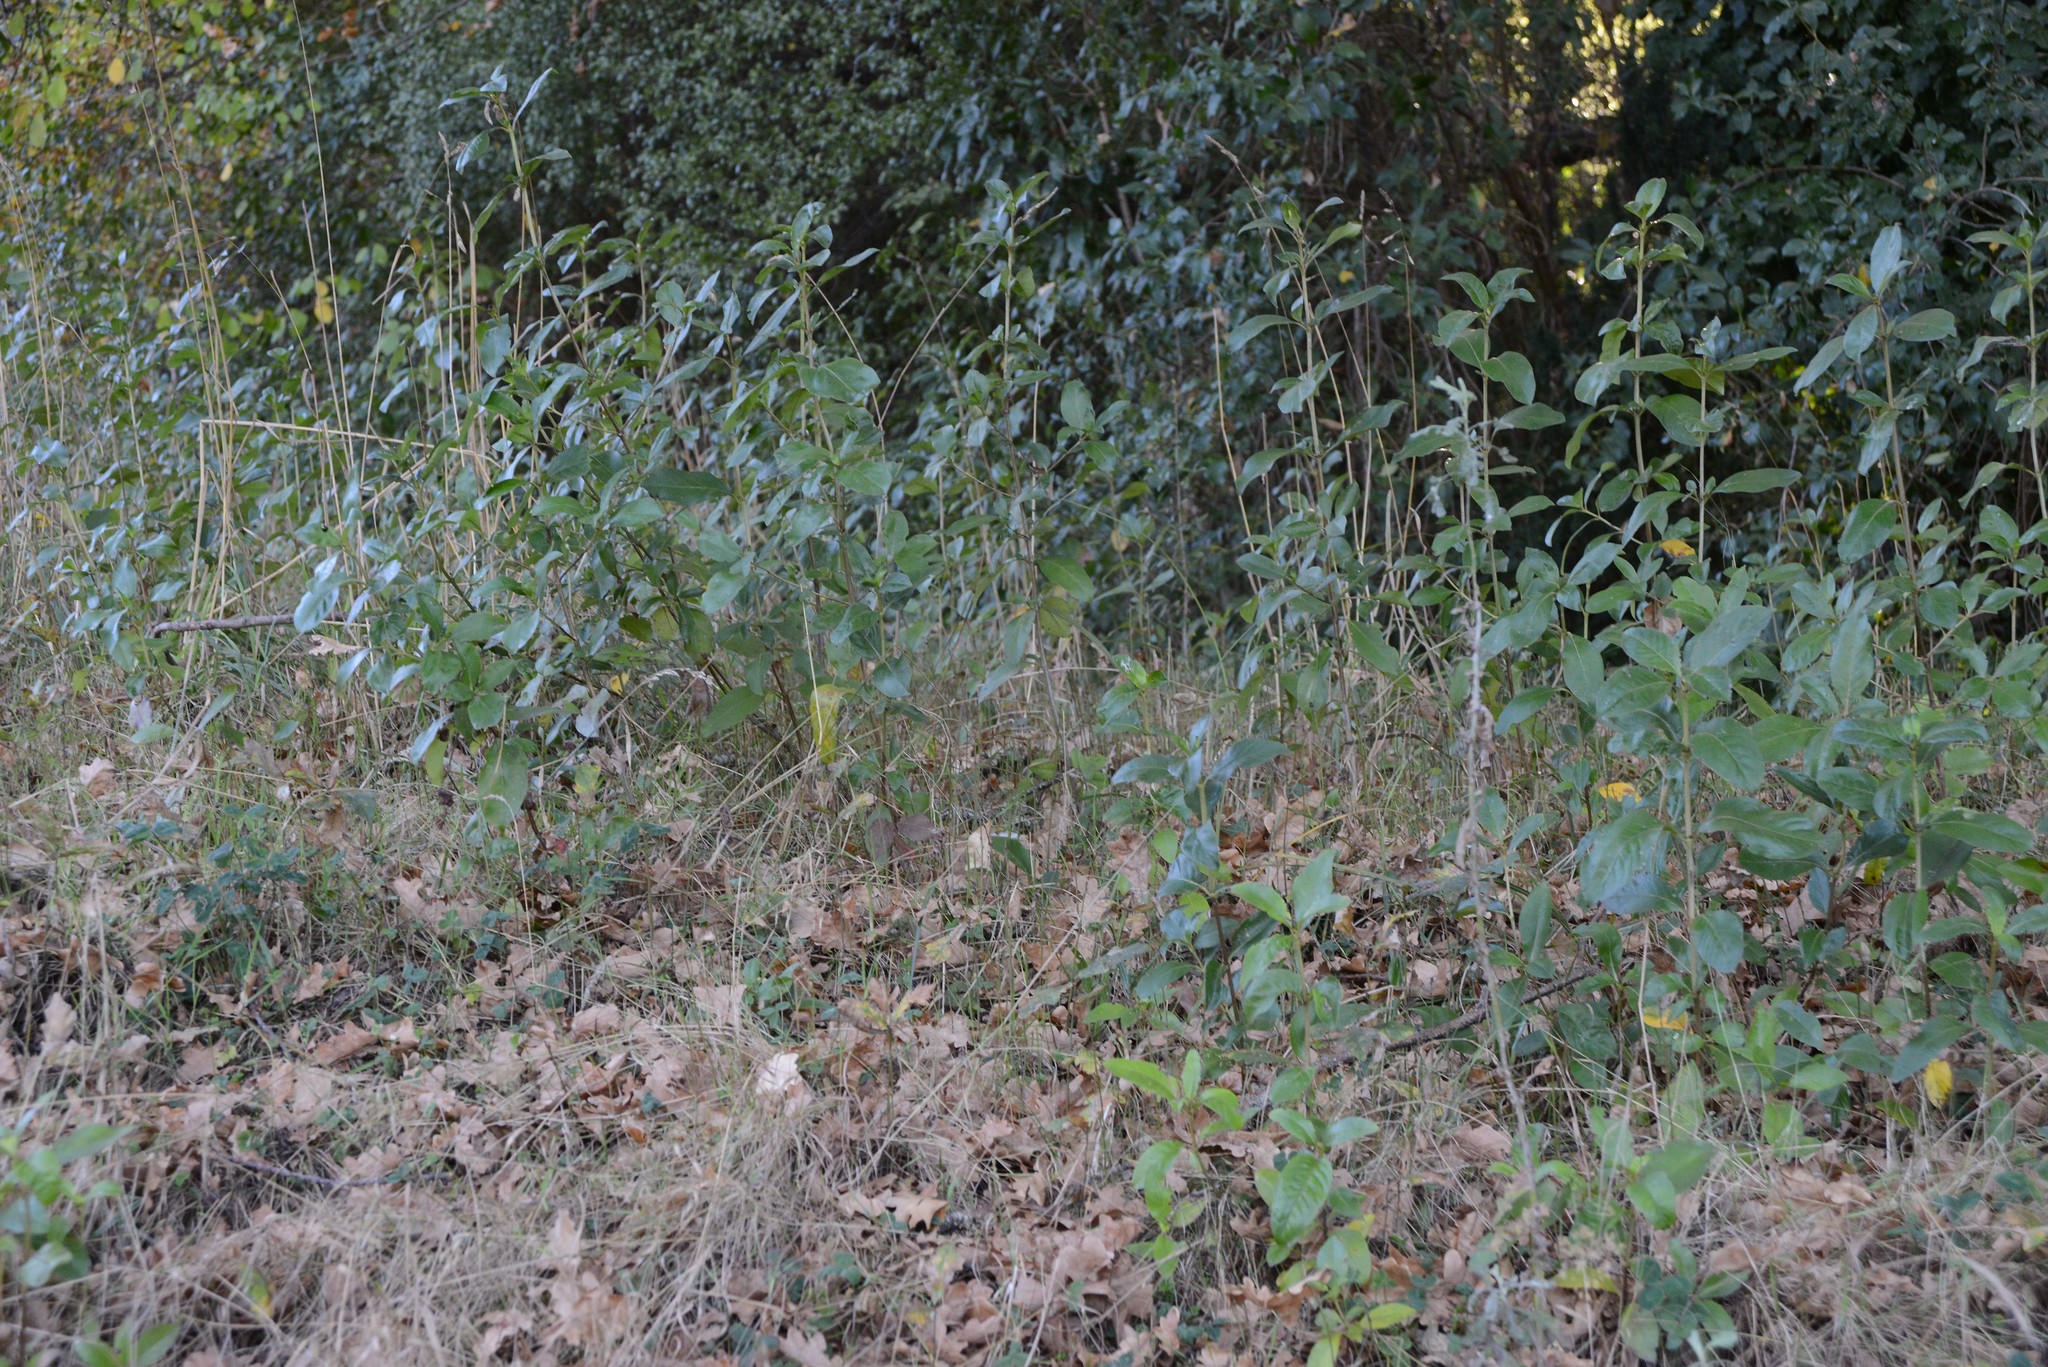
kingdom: Plantae
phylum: Tracheophyta
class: Magnoliopsida
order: Gentianales
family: Rubiaceae
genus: Coprosma
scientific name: Coprosma robusta
